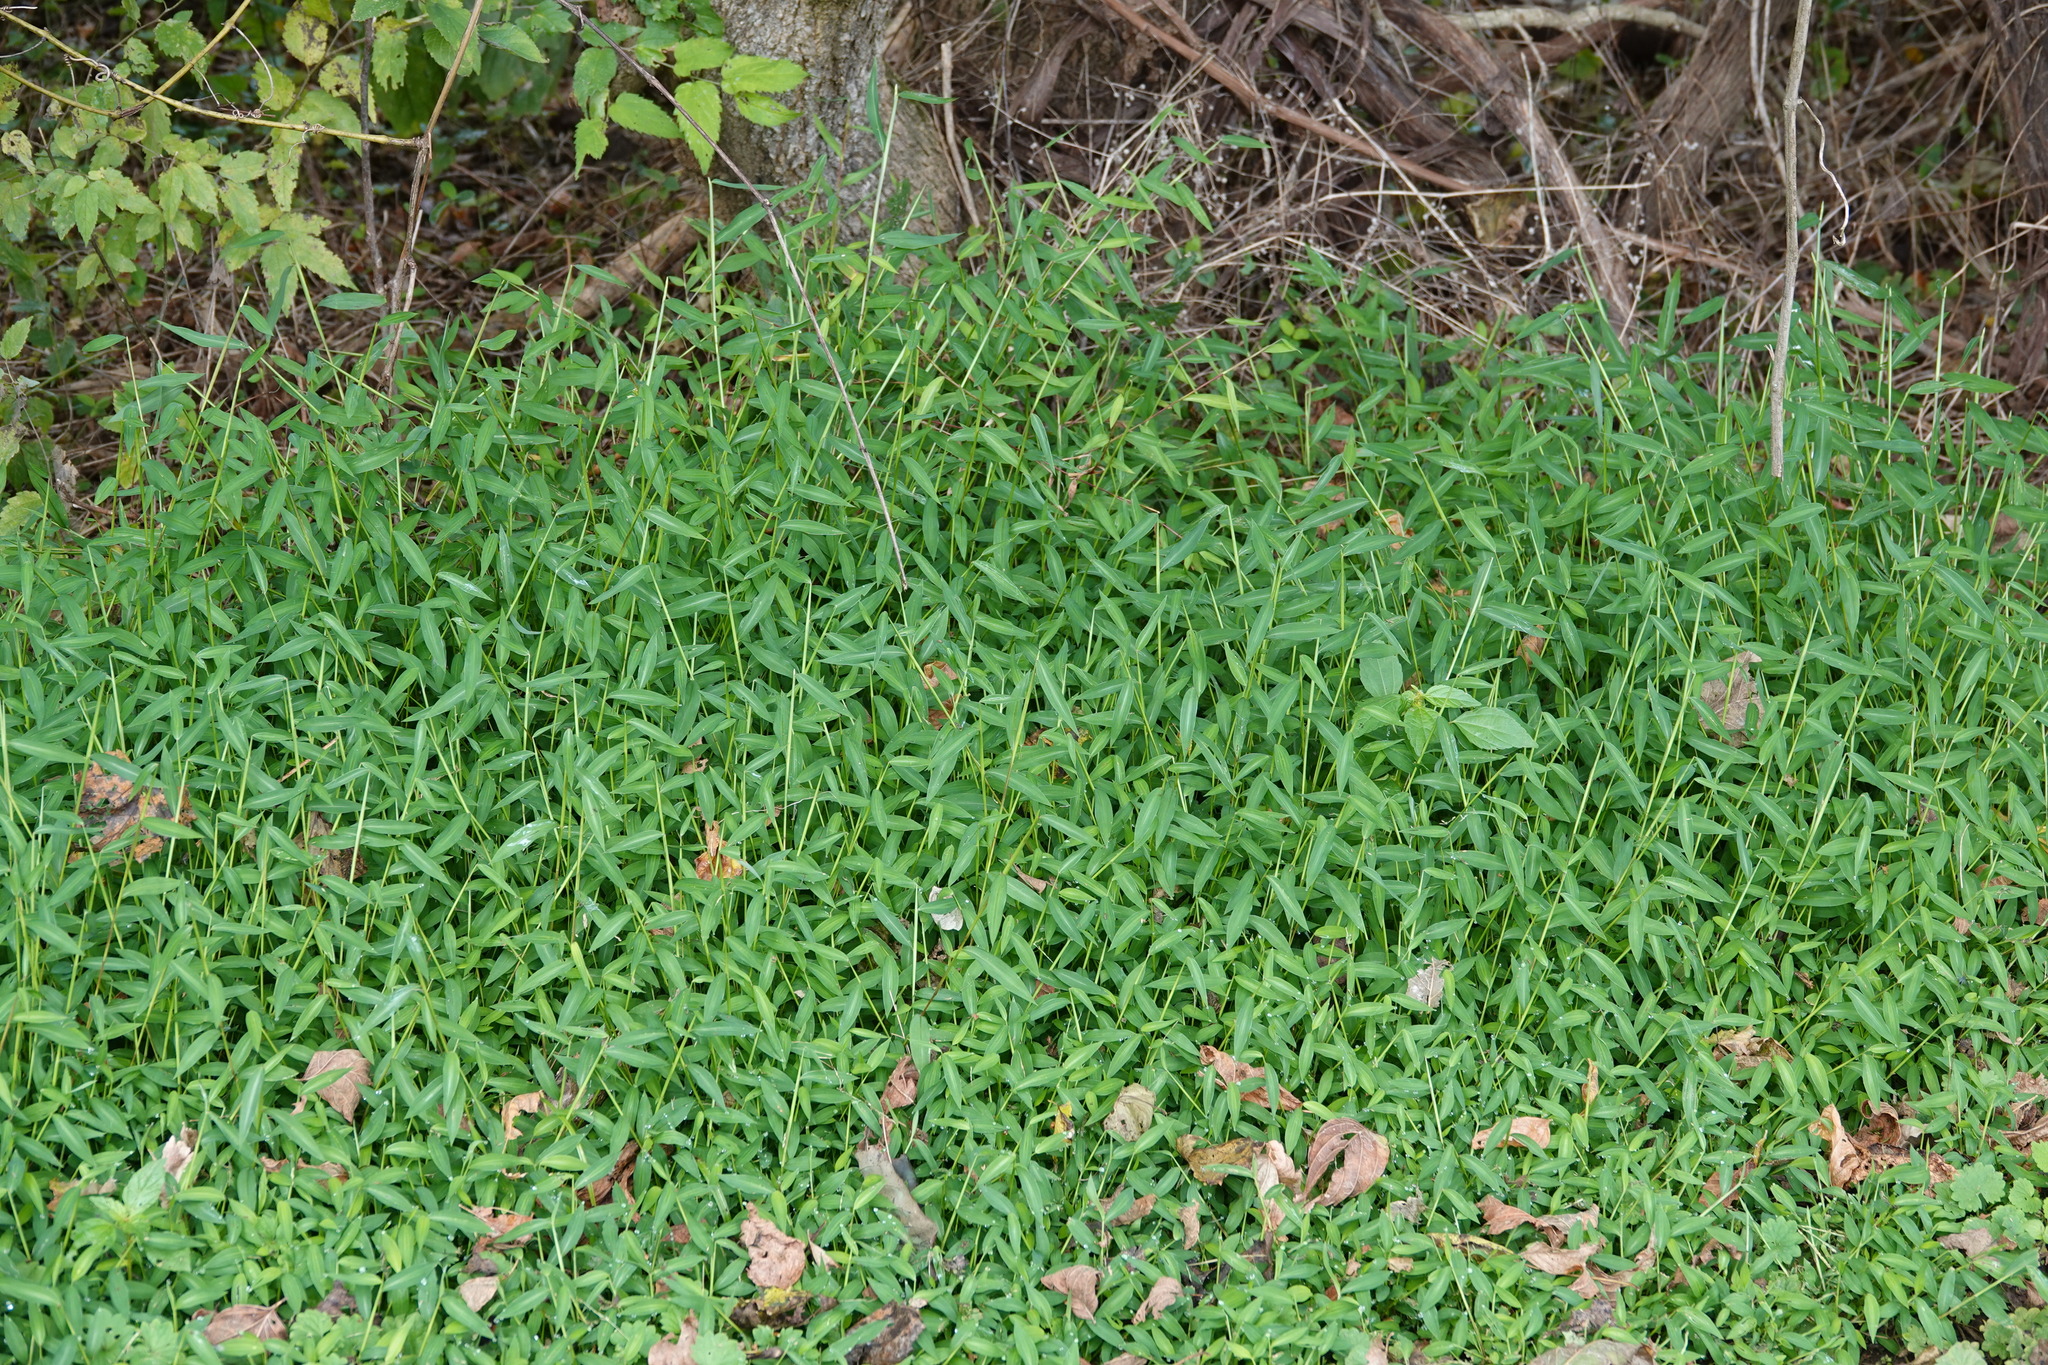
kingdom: Plantae
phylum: Tracheophyta
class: Liliopsida
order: Poales
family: Poaceae
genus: Microstegium
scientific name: Microstegium vimineum
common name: Japanese stiltgrass
